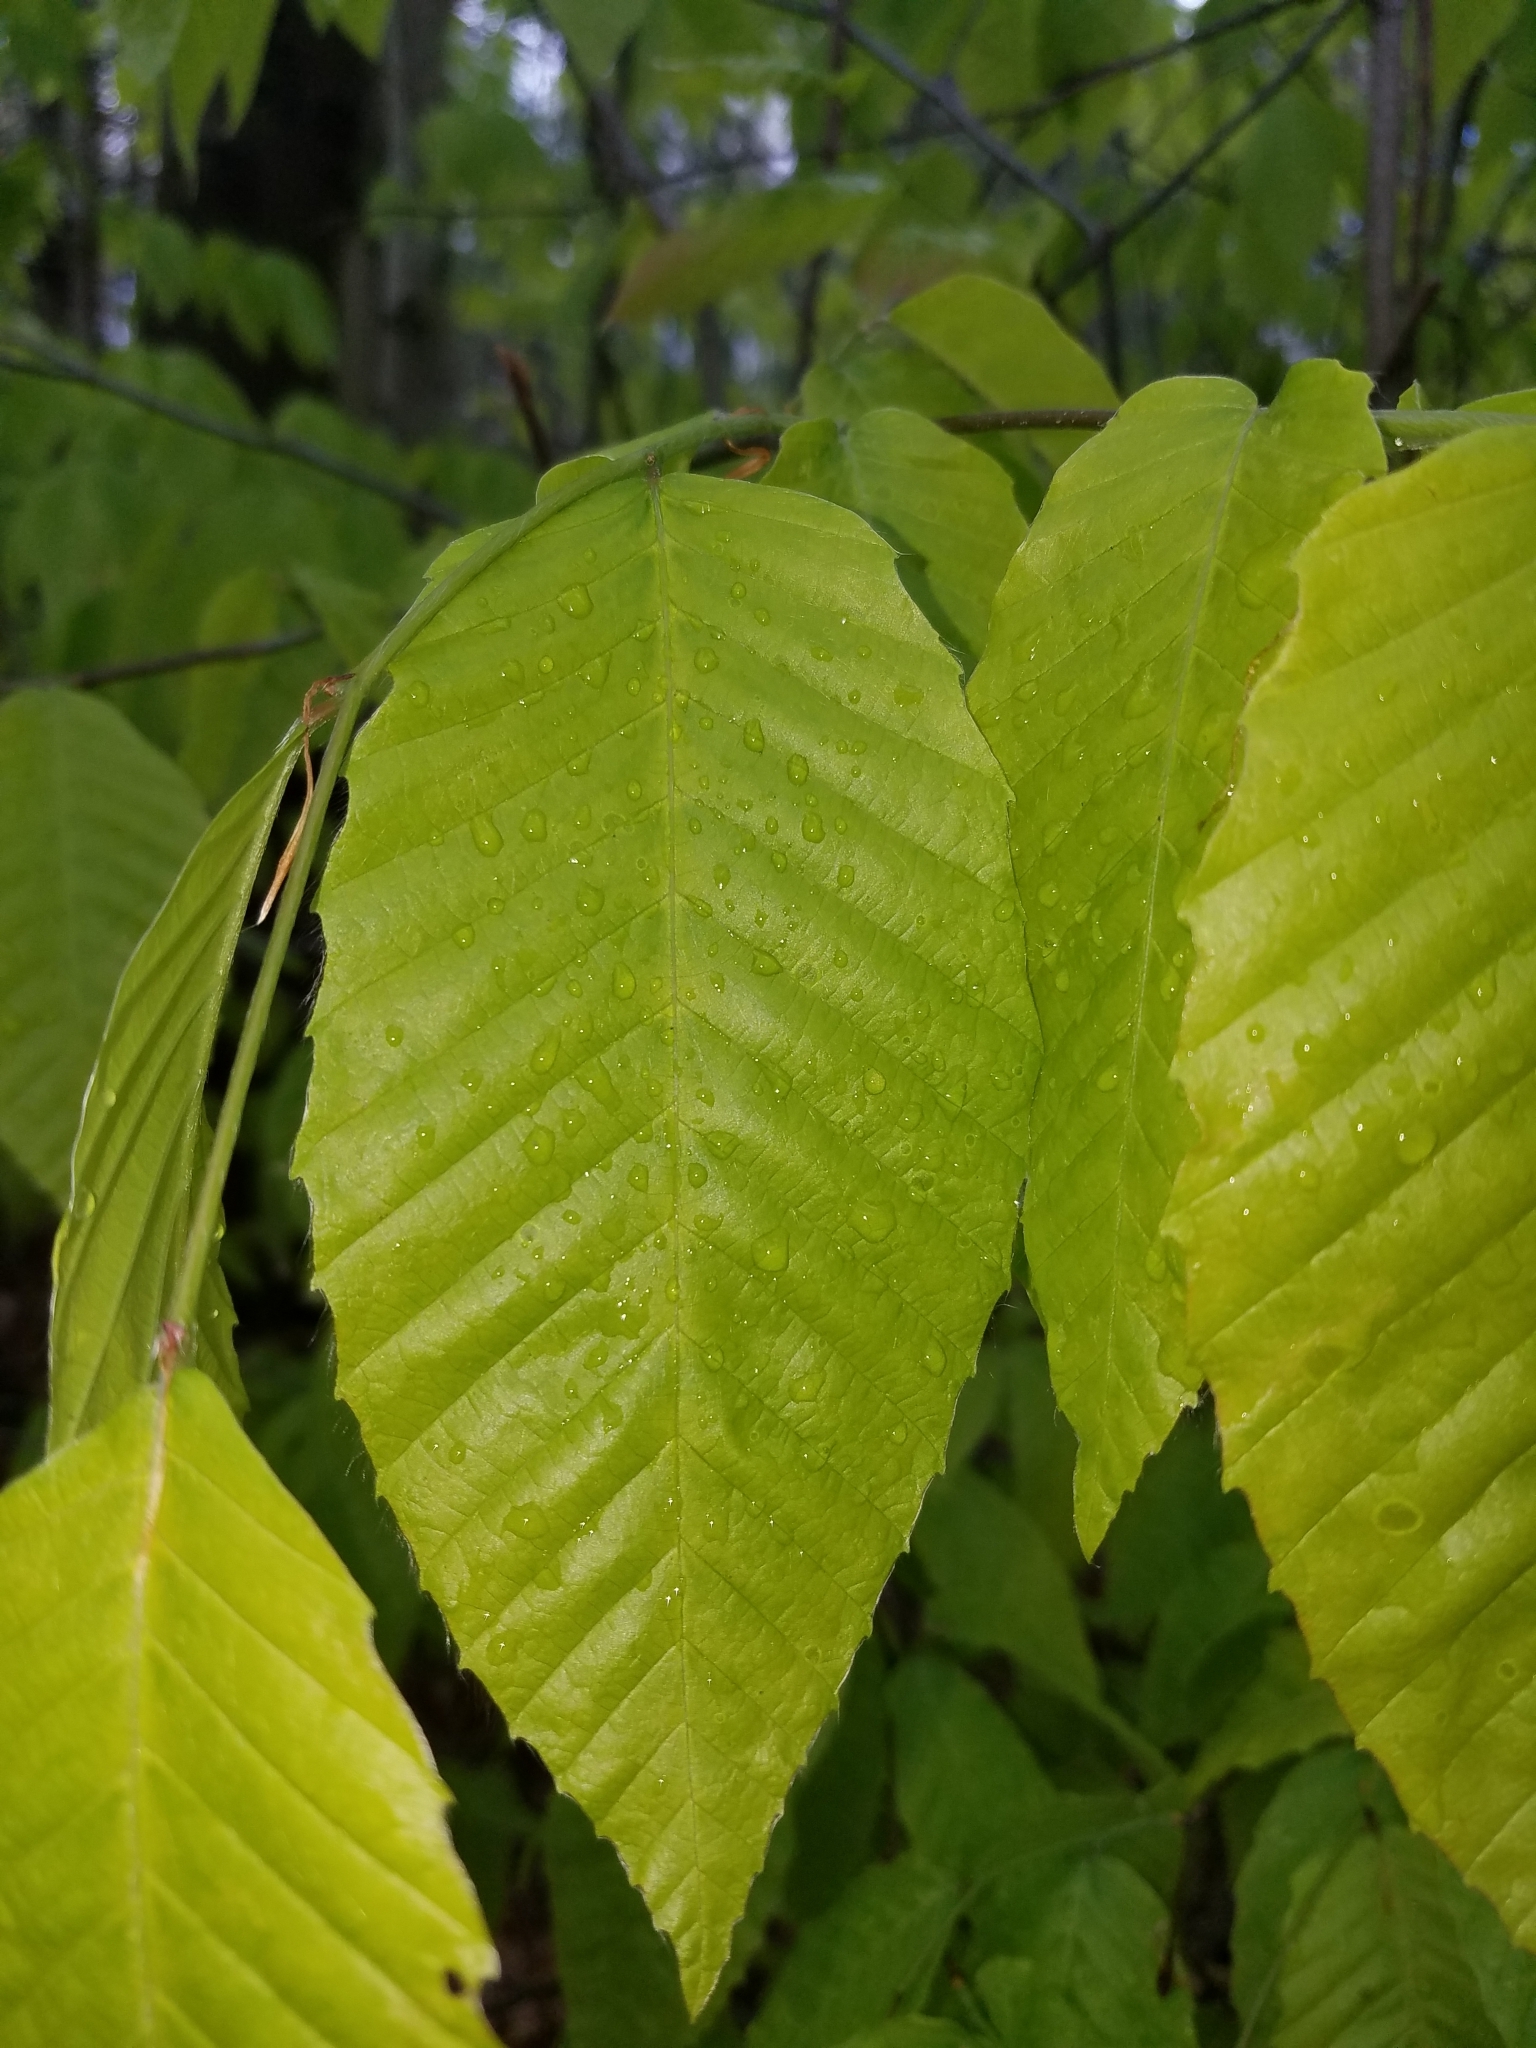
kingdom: Plantae
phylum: Tracheophyta
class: Magnoliopsida
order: Fagales
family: Fagaceae
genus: Fagus
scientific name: Fagus grandifolia
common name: American beech
